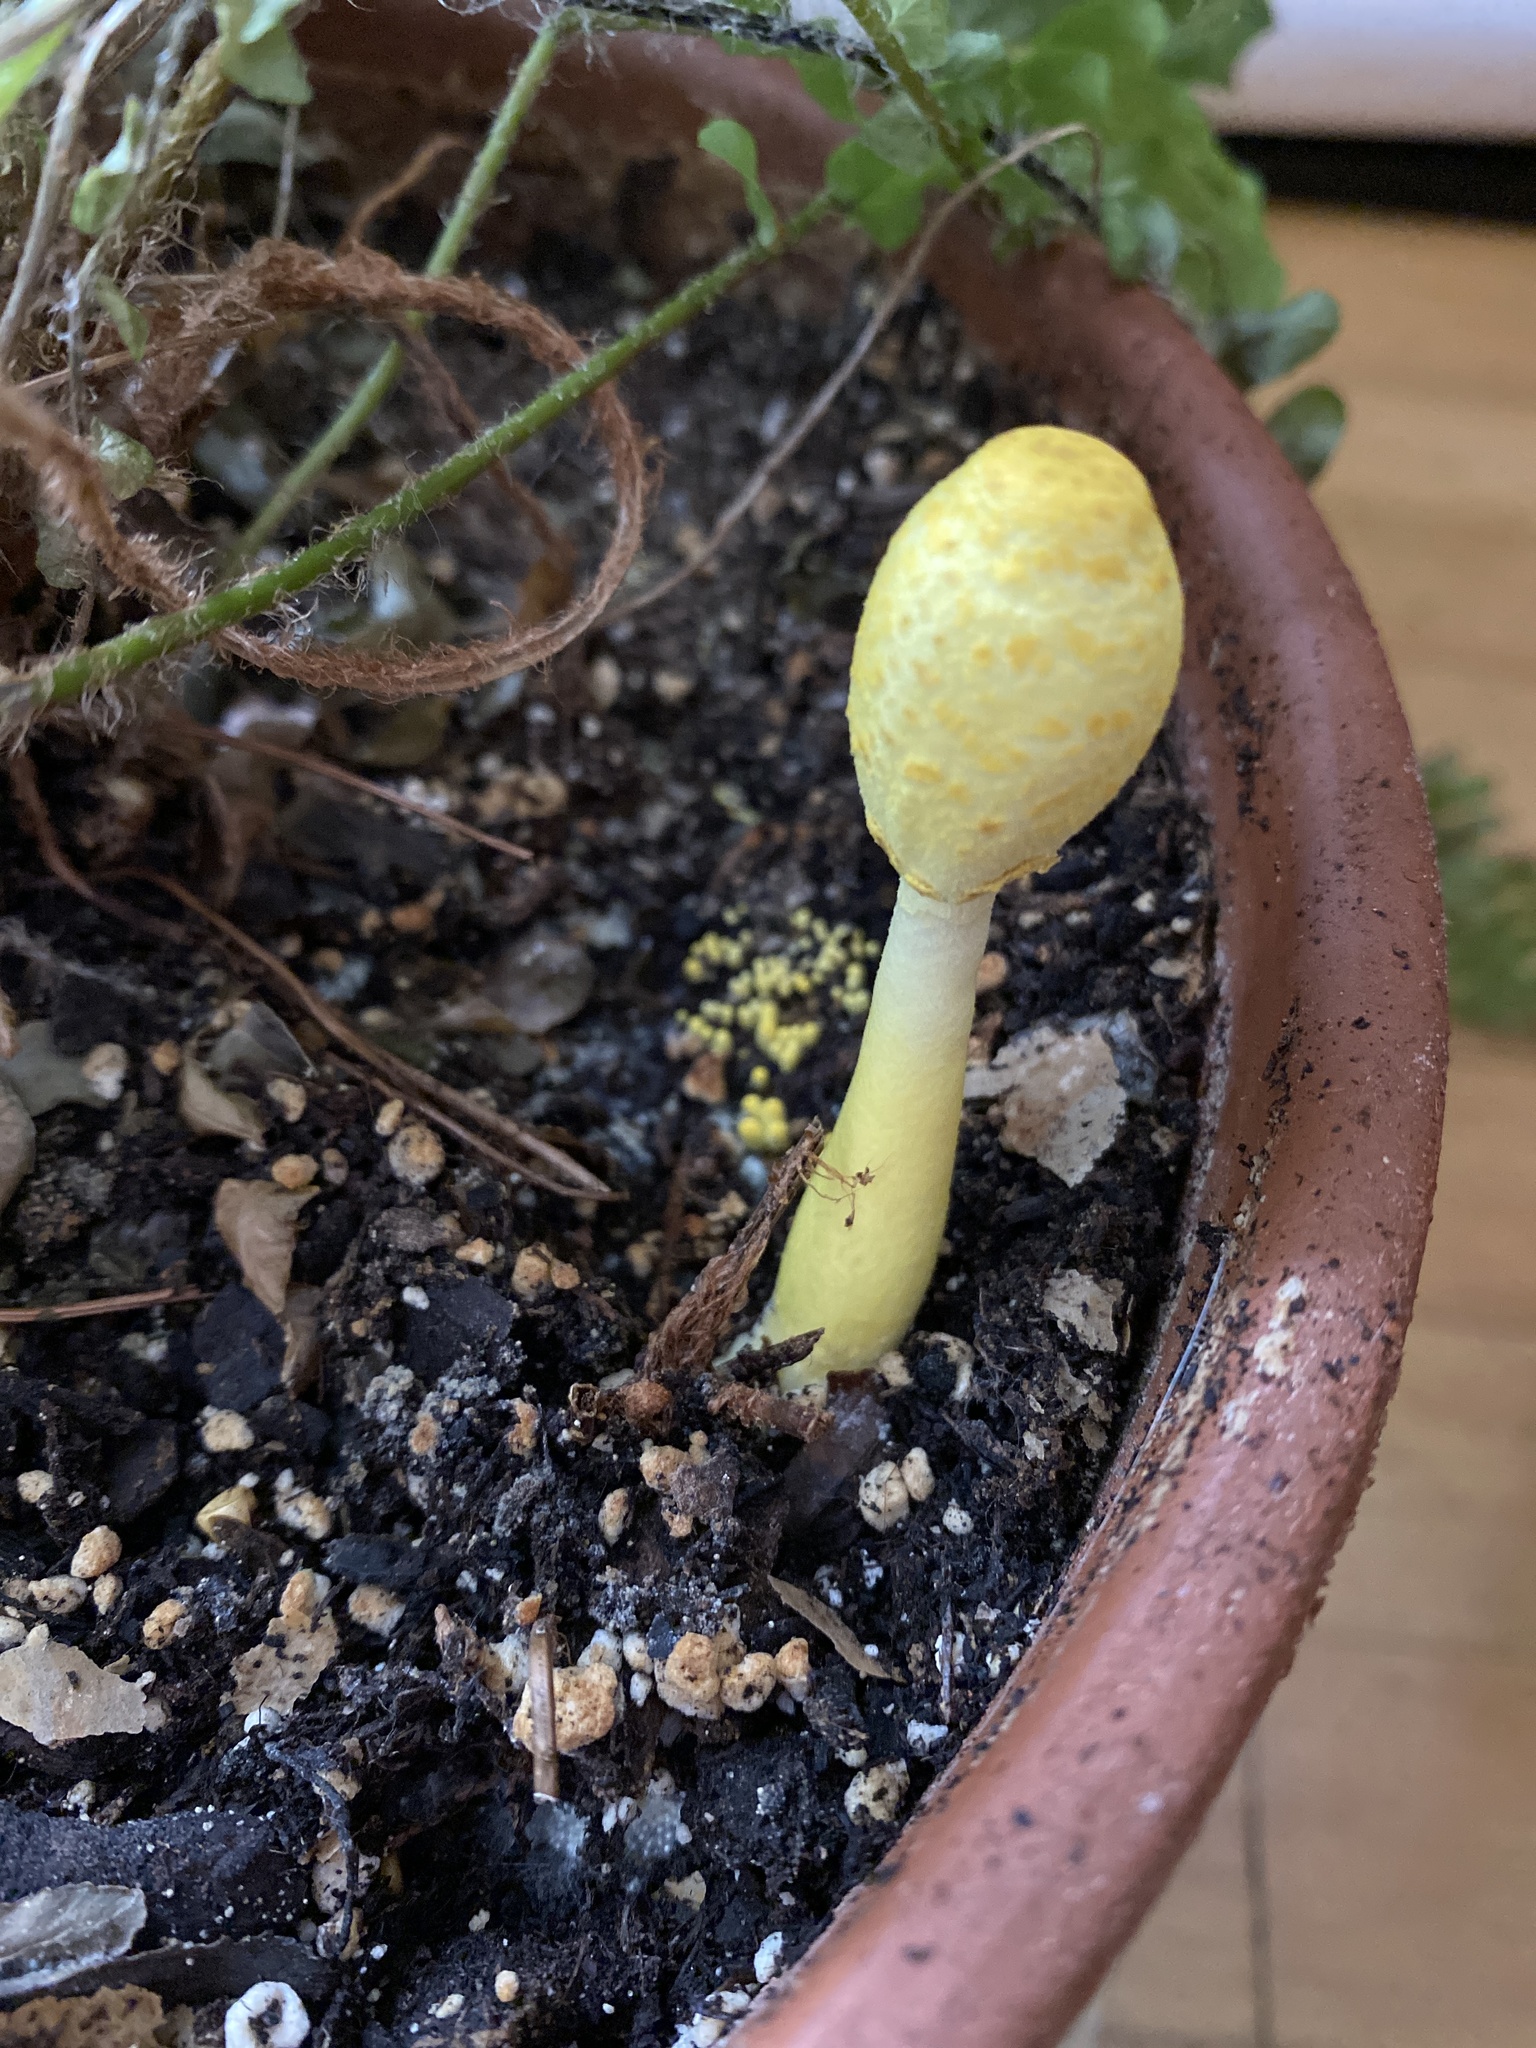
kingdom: Fungi
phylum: Basidiomycota
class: Agaricomycetes
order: Agaricales
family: Agaricaceae
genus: Leucocoprinus
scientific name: Leucocoprinus birnbaumii
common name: Plantpot dapperling
